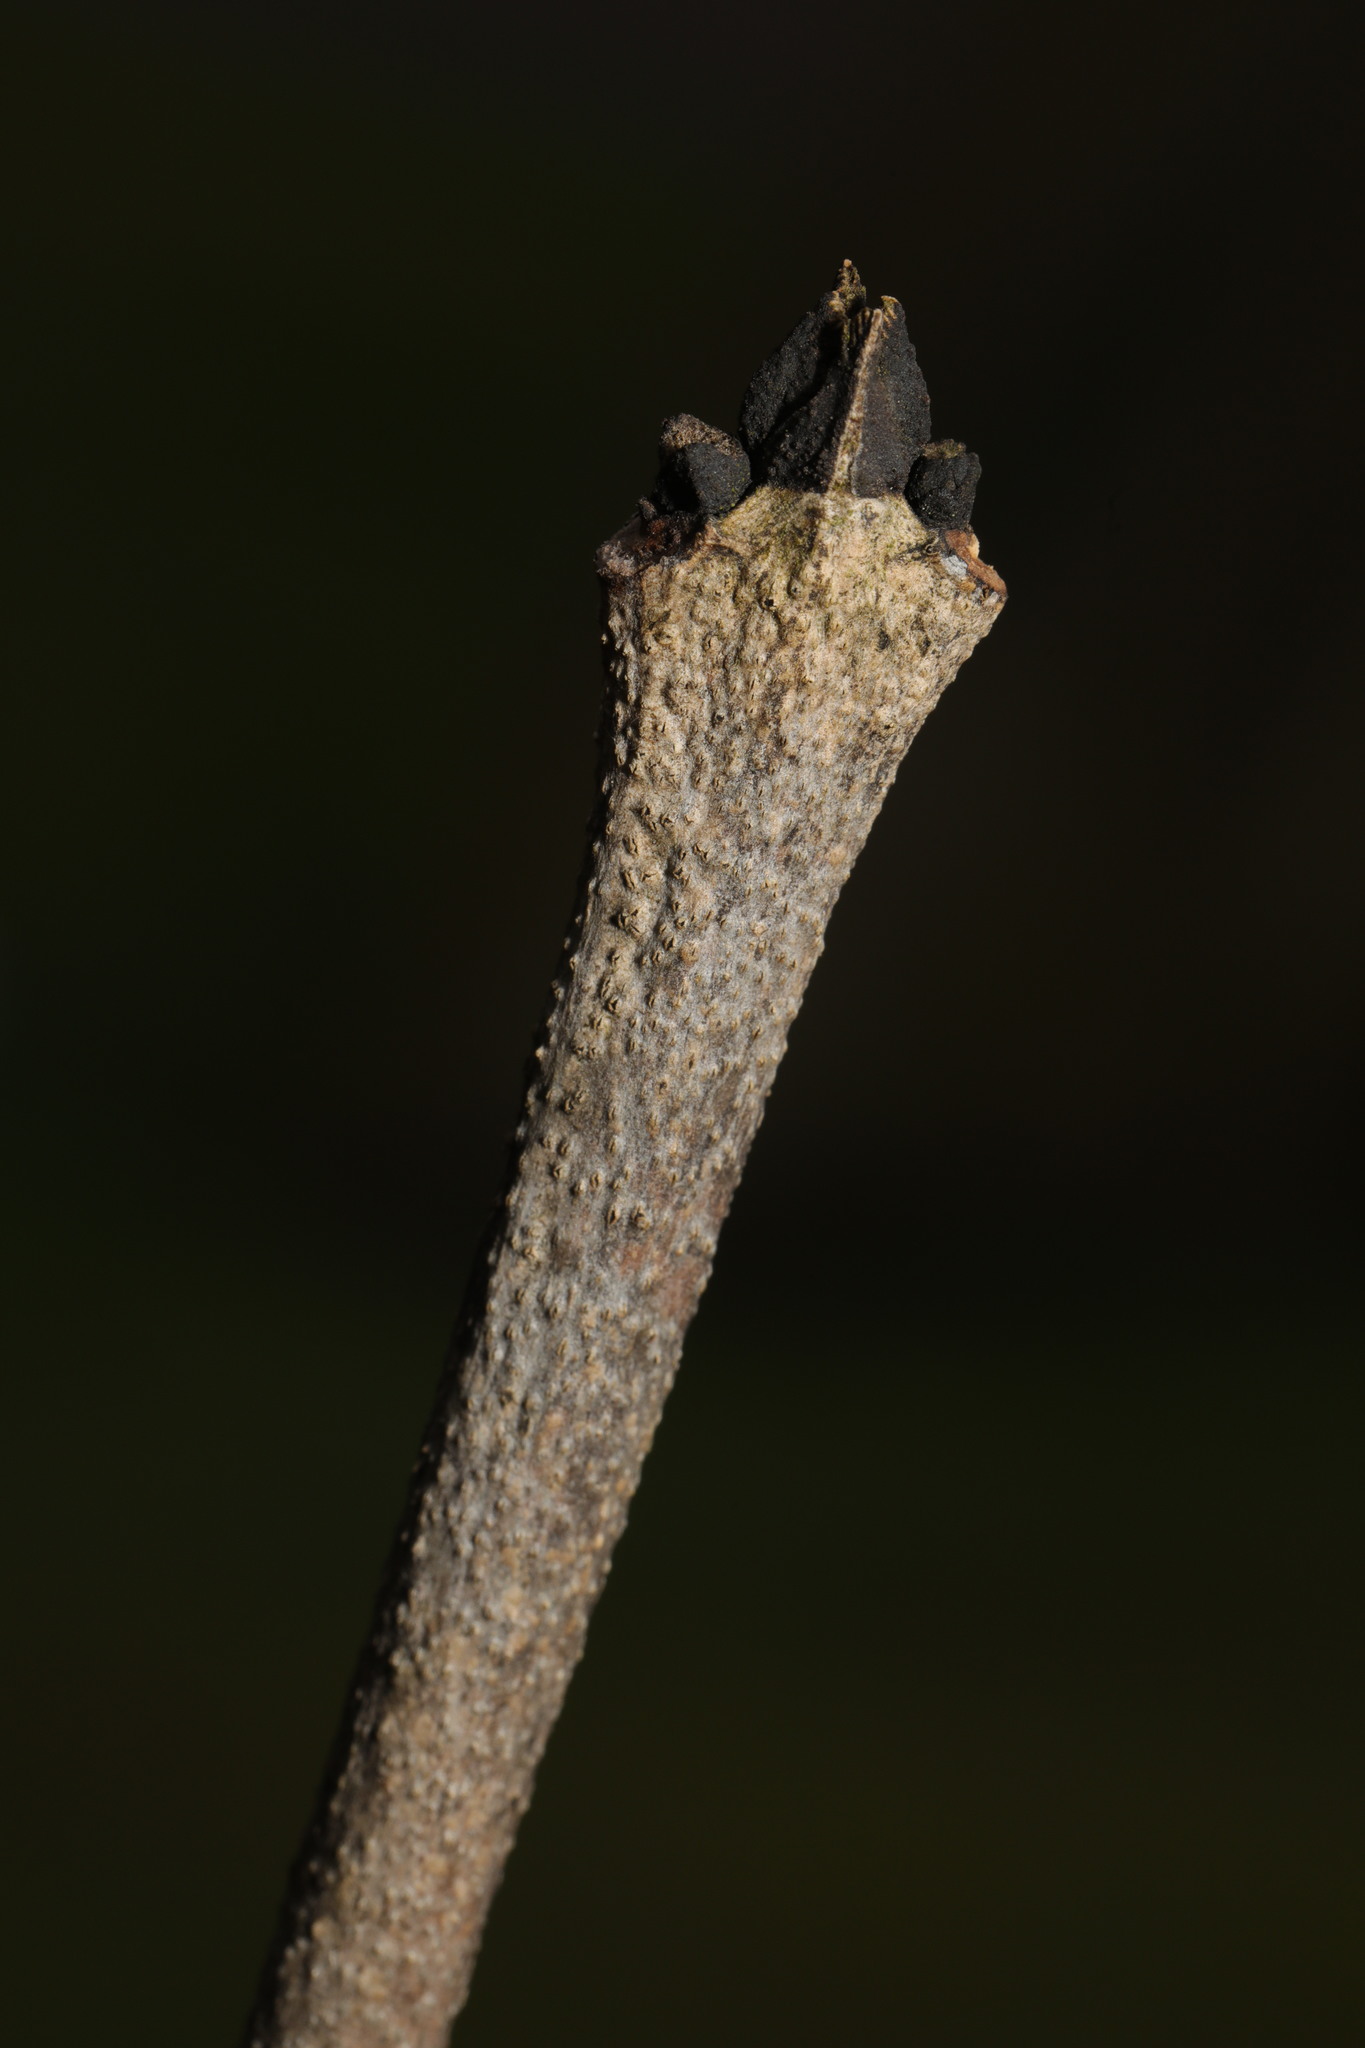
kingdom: Plantae
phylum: Tracheophyta
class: Magnoliopsida
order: Lamiales
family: Oleaceae
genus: Fraxinus
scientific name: Fraxinus excelsior
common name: European ash
